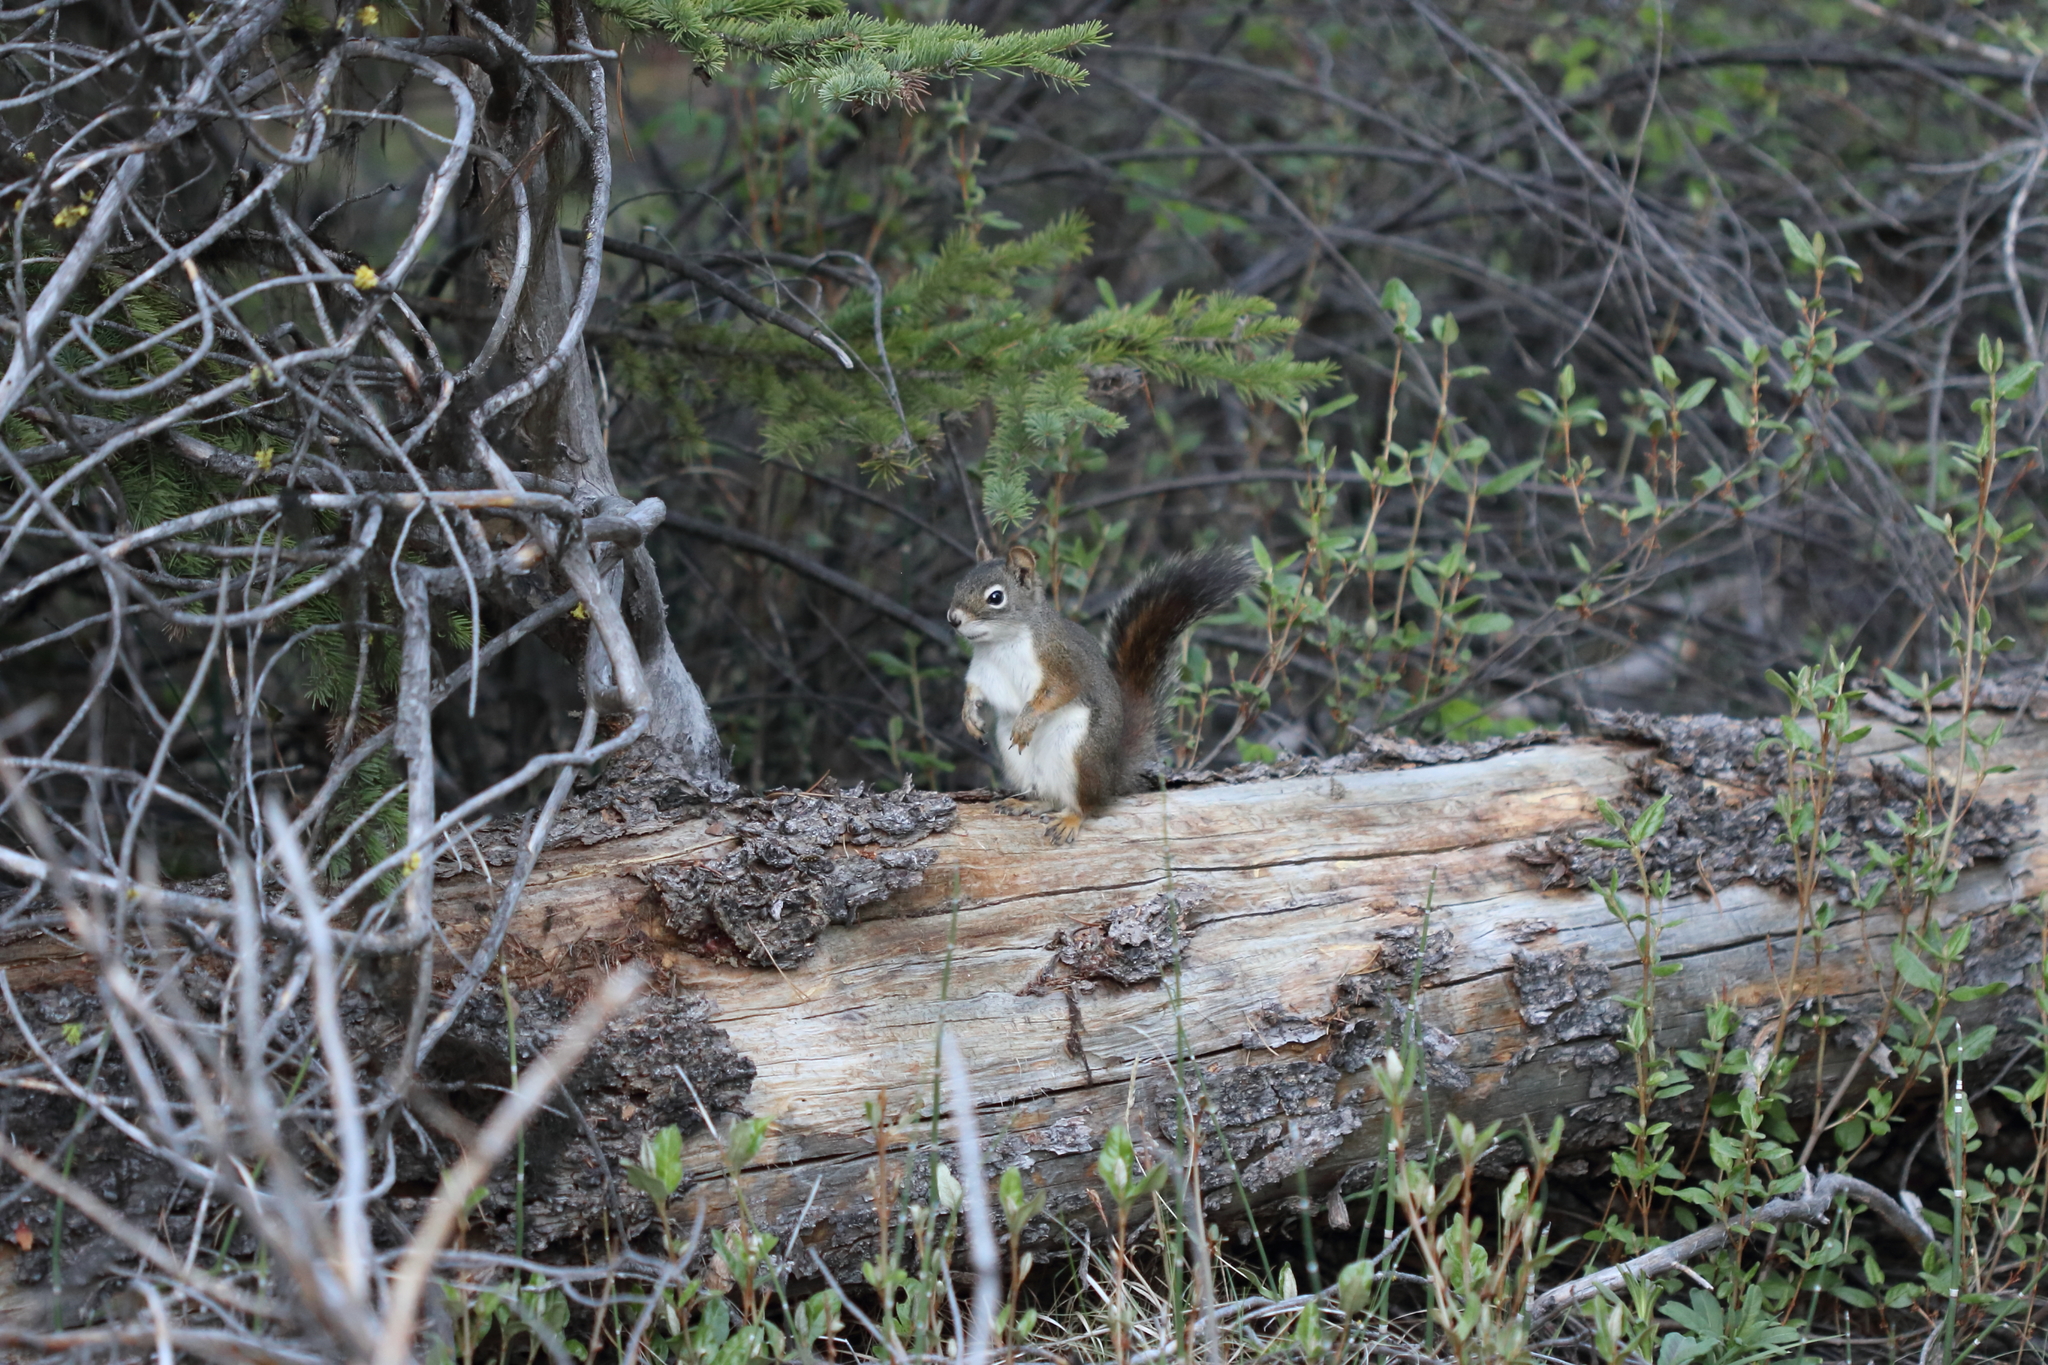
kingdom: Animalia
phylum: Chordata
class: Mammalia
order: Rodentia
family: Sciuridae
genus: Tamiasciurus
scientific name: Tamiasciurus hudsonicus
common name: Red squirrel
